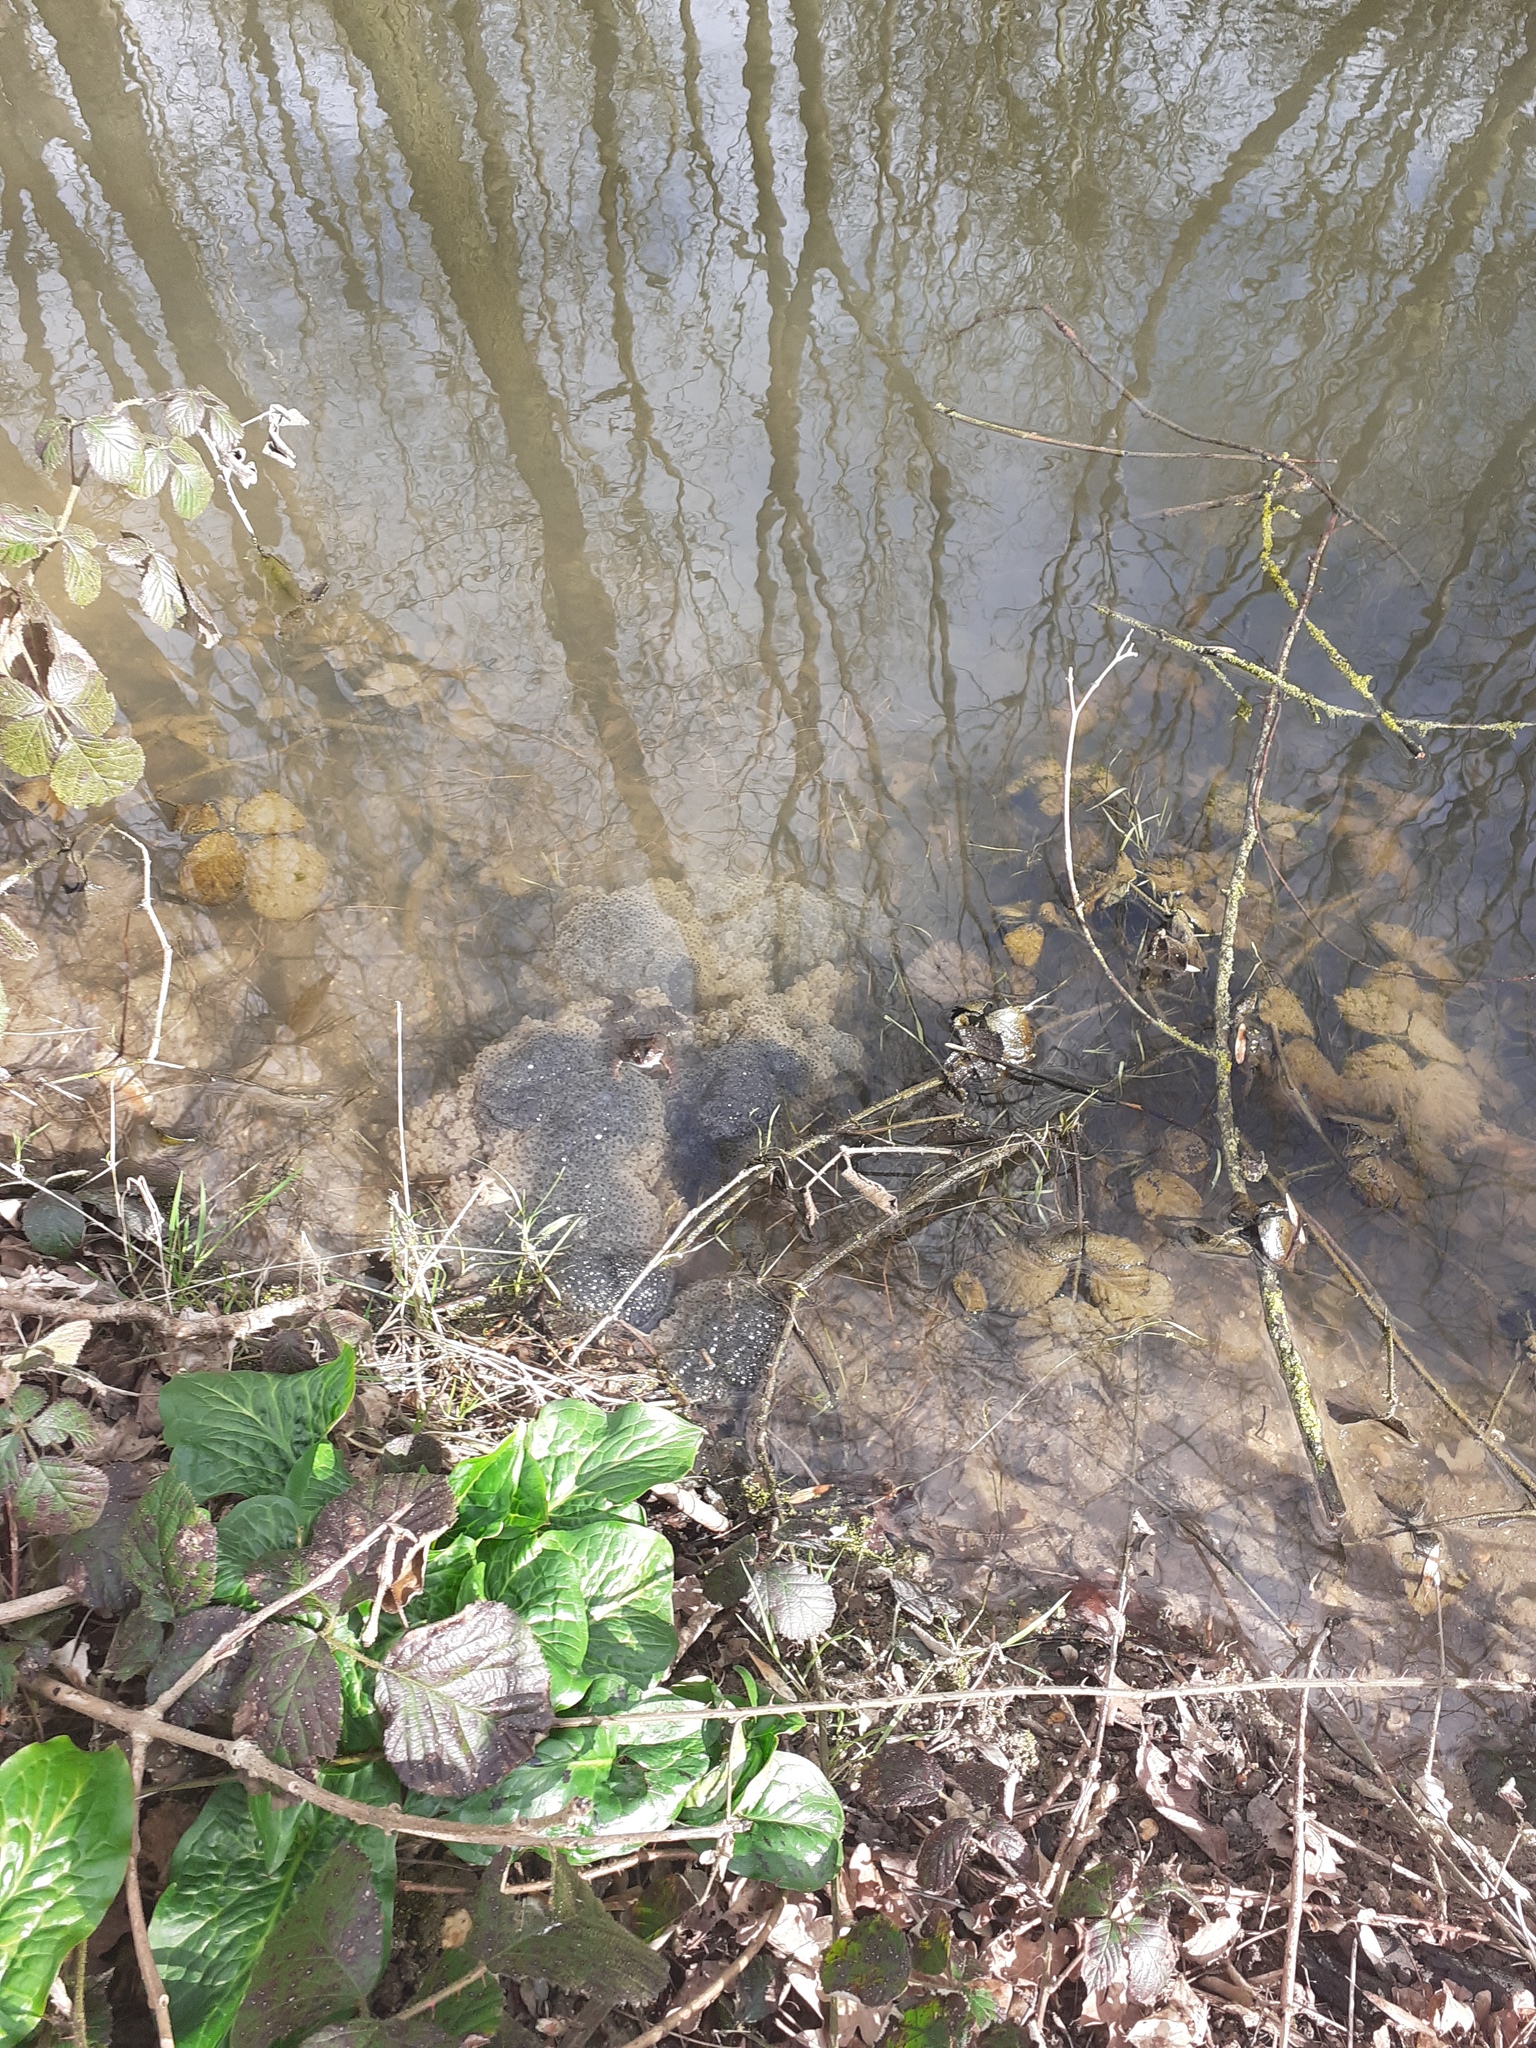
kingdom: Animalia
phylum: Chordata
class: Amphibia
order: Anura
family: Ranidae
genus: Rana
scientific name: Rana temporaria
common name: Common frog
